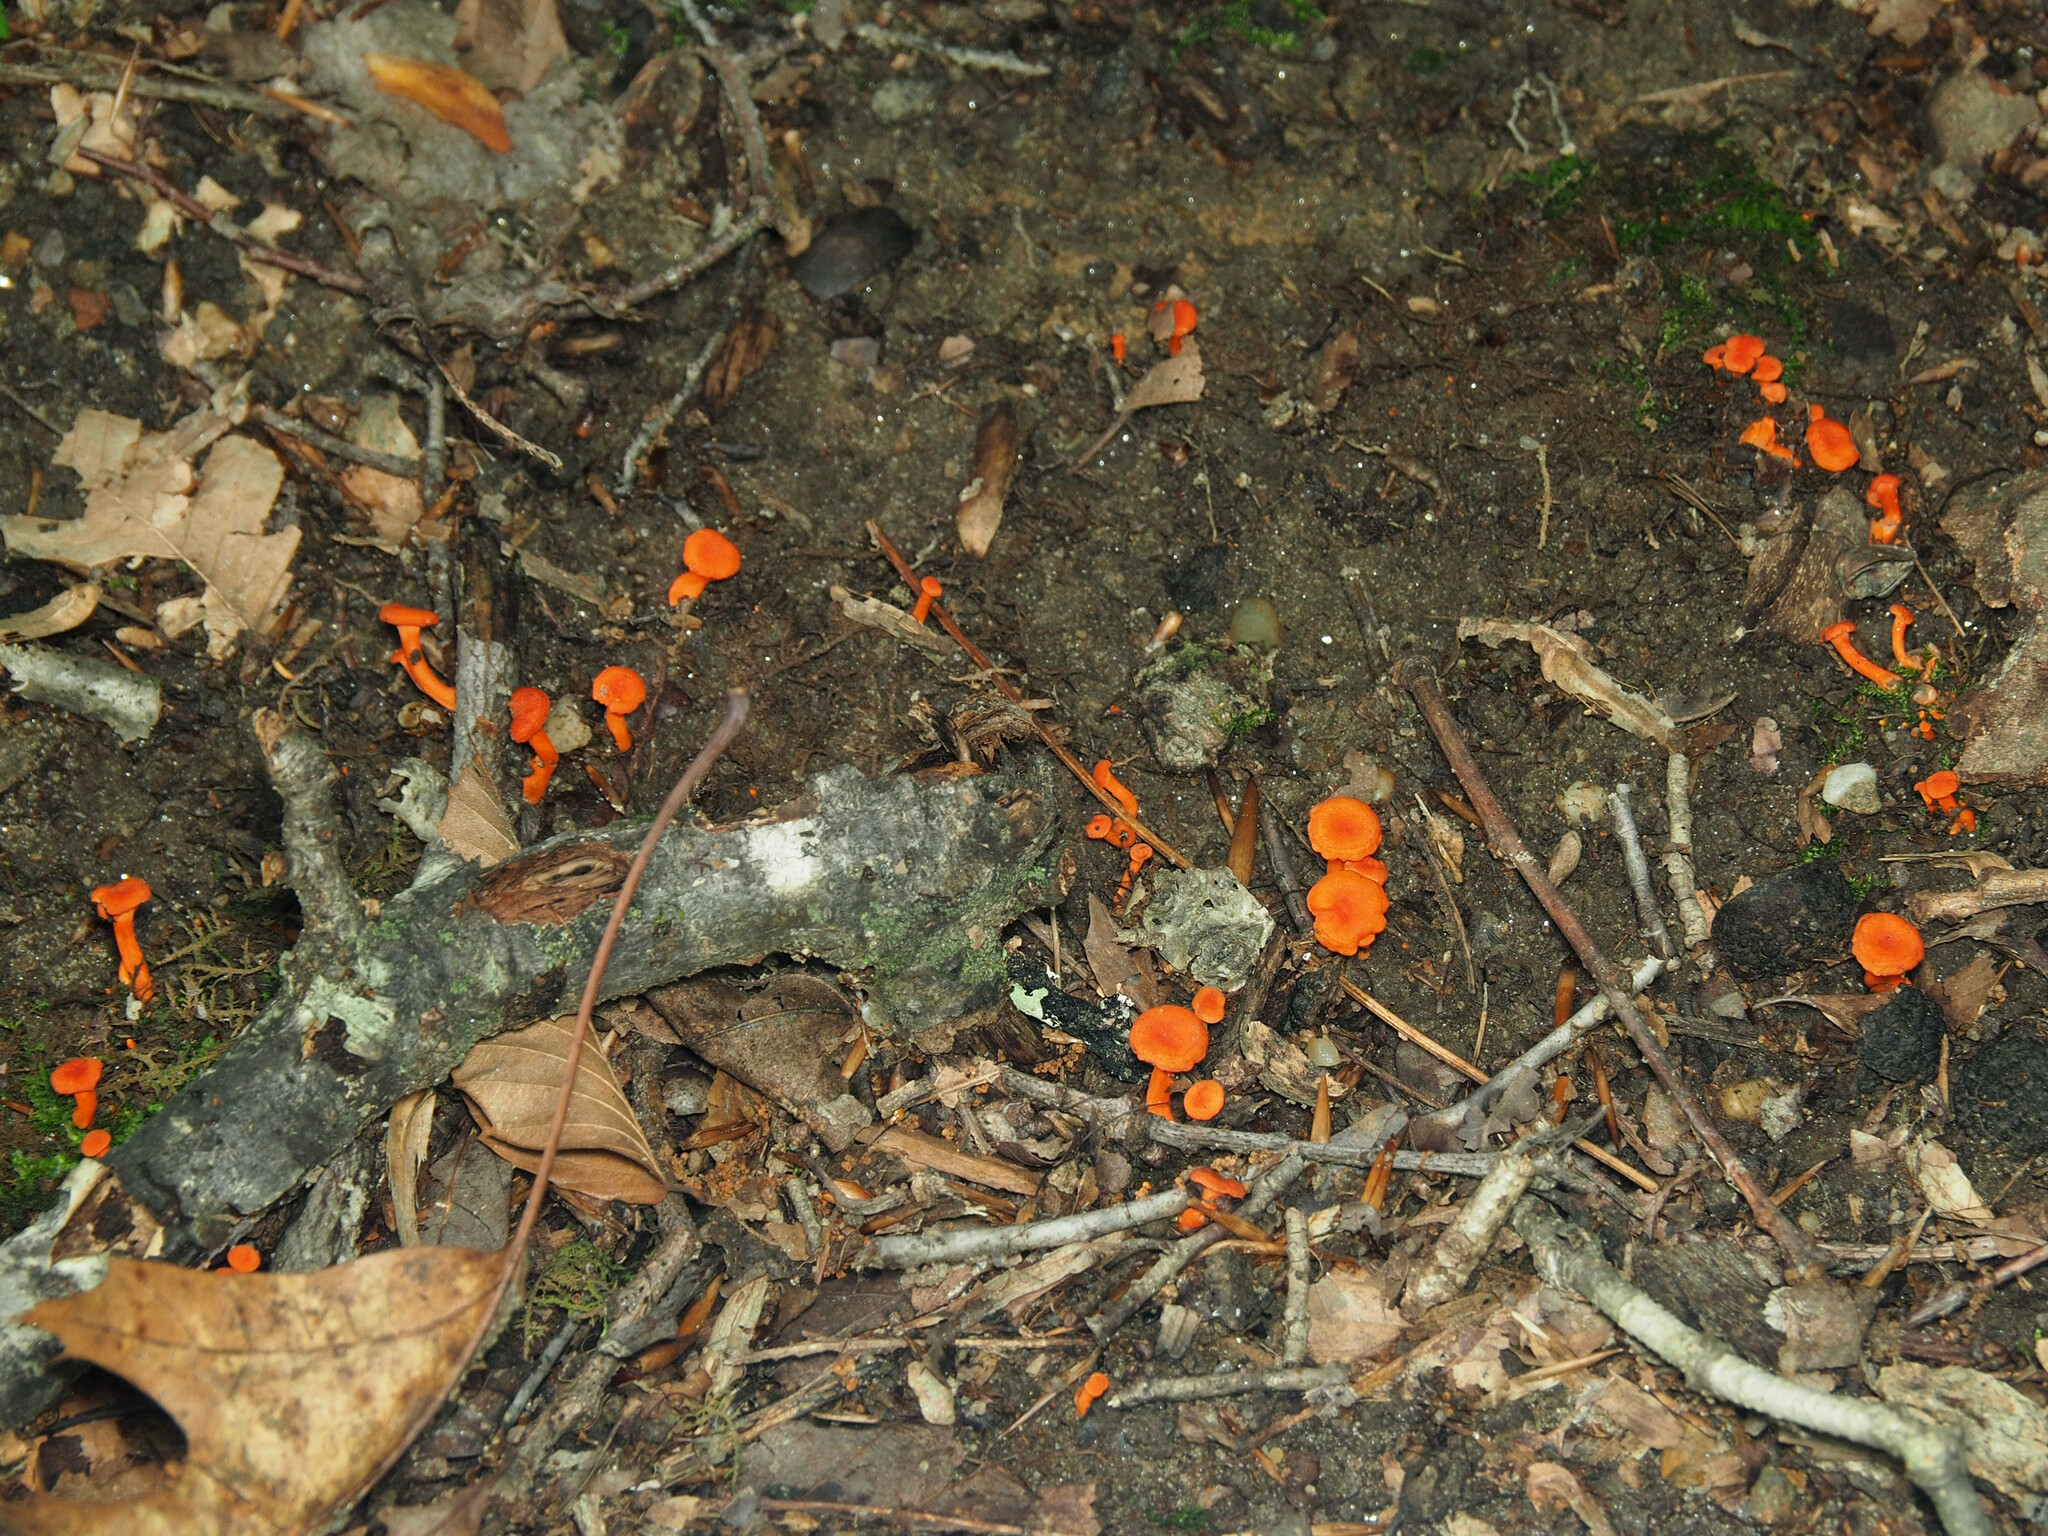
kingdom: Fungi
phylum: Basidiomycota
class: Agaricomycetes
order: Cantharellales
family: Hydnaceae
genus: Cantharellus
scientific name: Cantharellus cinnabarinus
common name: Cinnabar chanterelle
